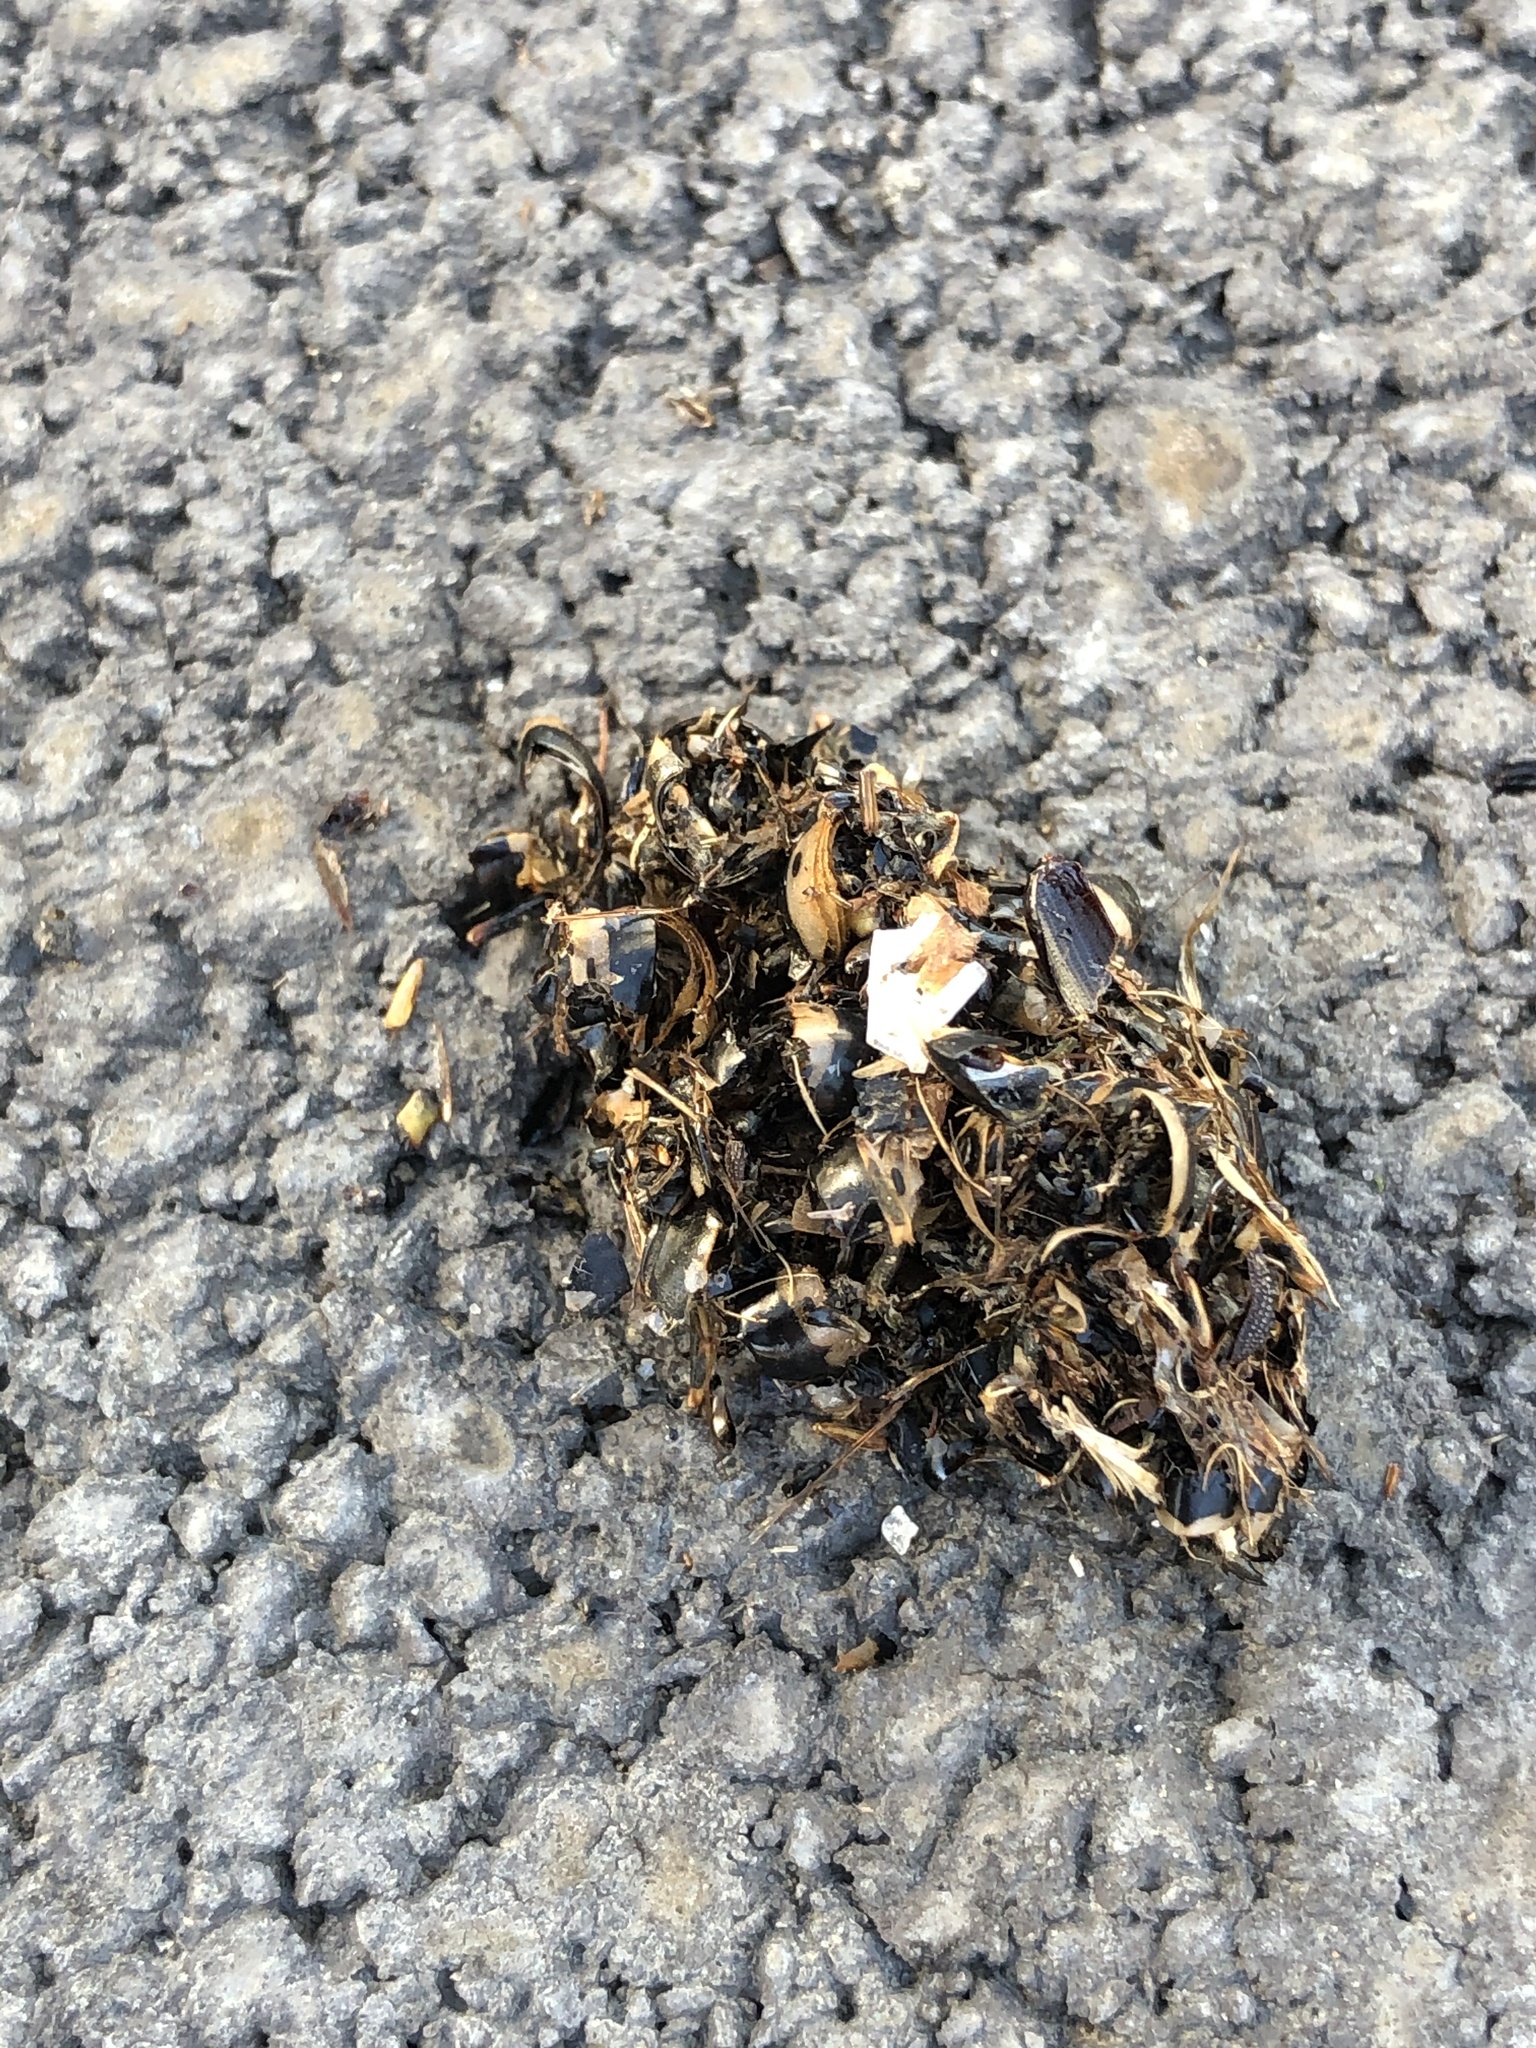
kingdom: Animalia
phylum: Chordata
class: Aves
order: Strigiformes
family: Strigidae
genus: Athene
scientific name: Athene noctua
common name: Little owl
